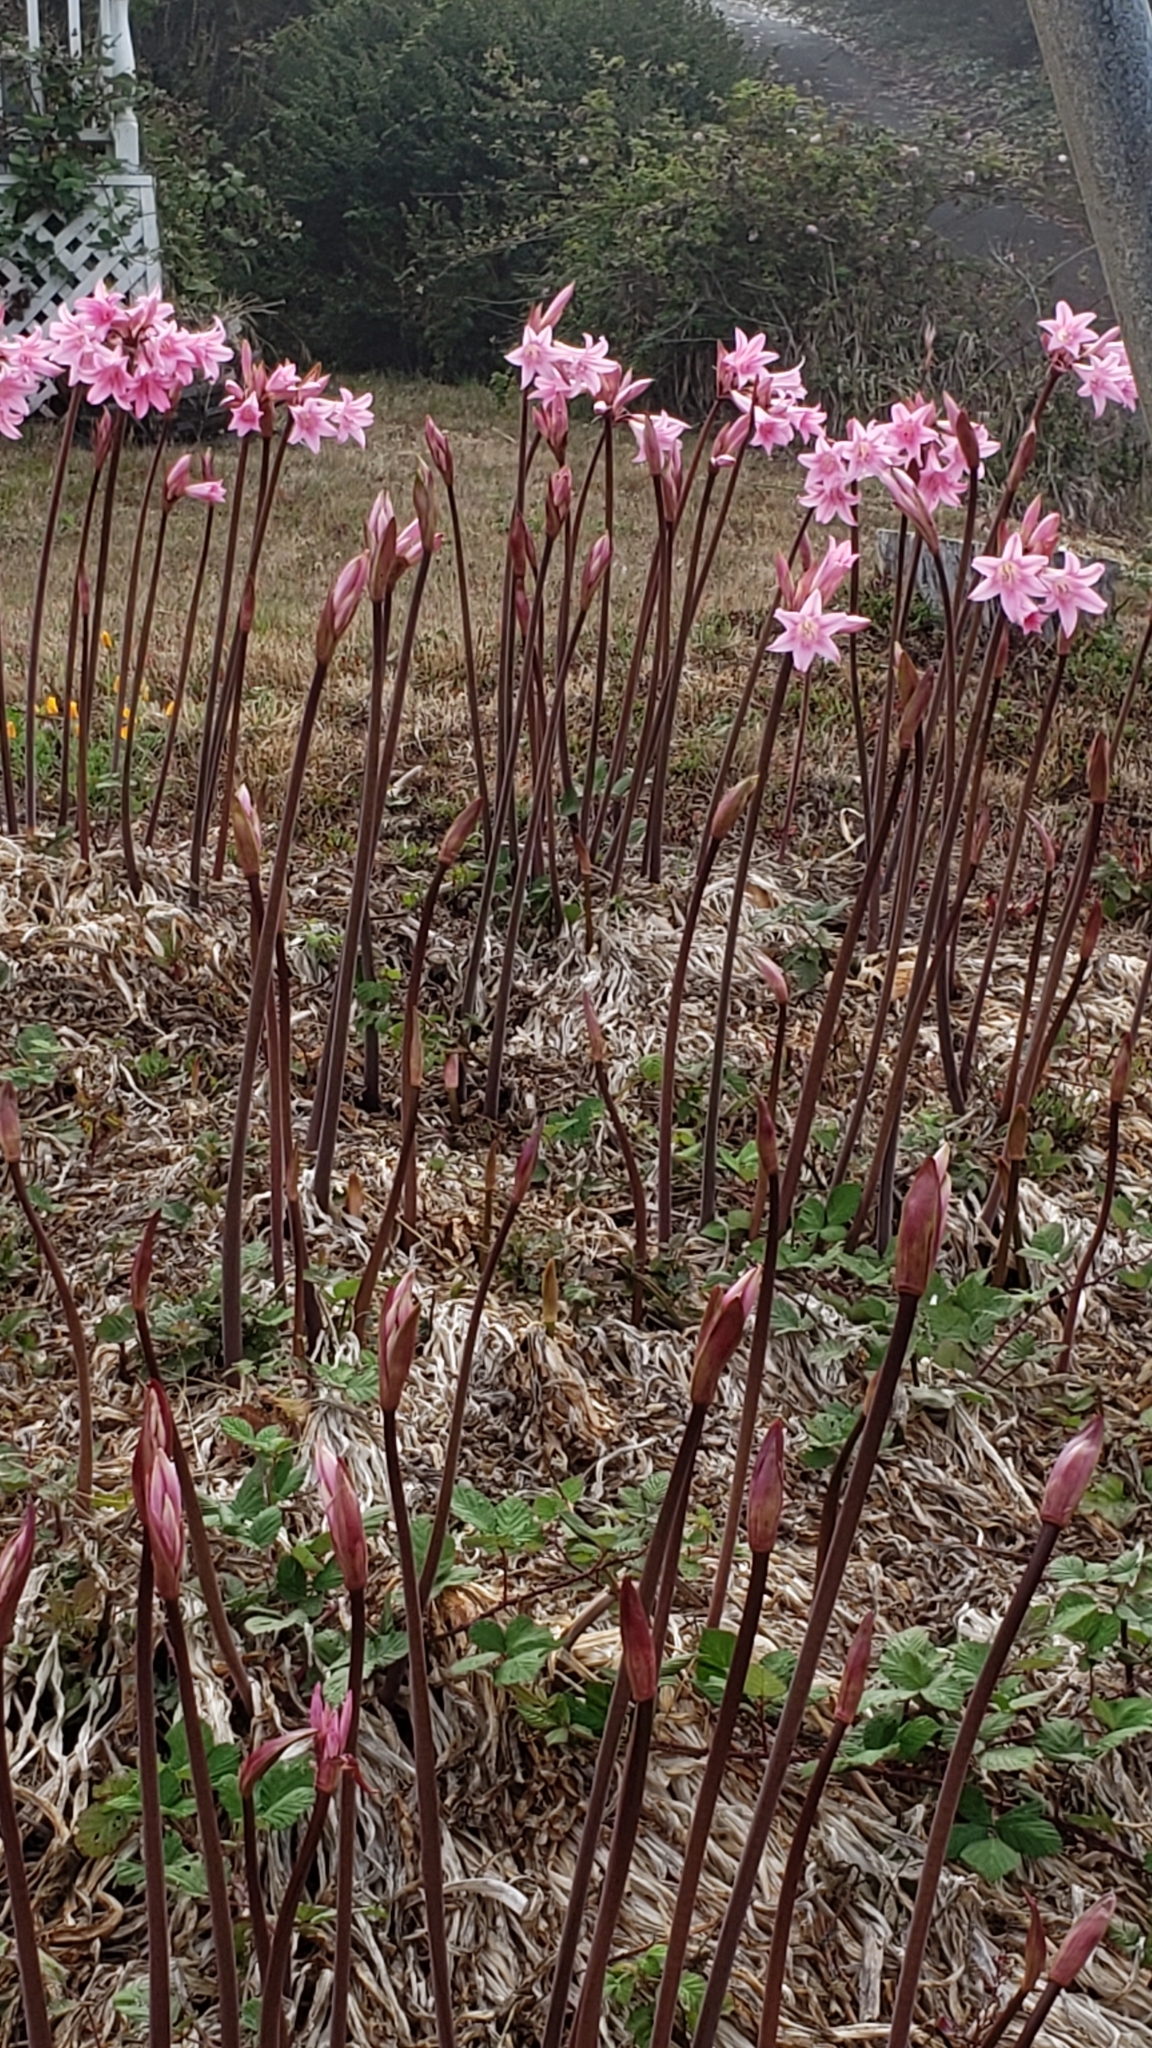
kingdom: Plantae
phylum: Tracheophyta
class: Liliopsida
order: Asparagales
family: Amaryllidaceae
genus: Amaryllis
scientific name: Amaryllis belladonna
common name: Jersey lily
